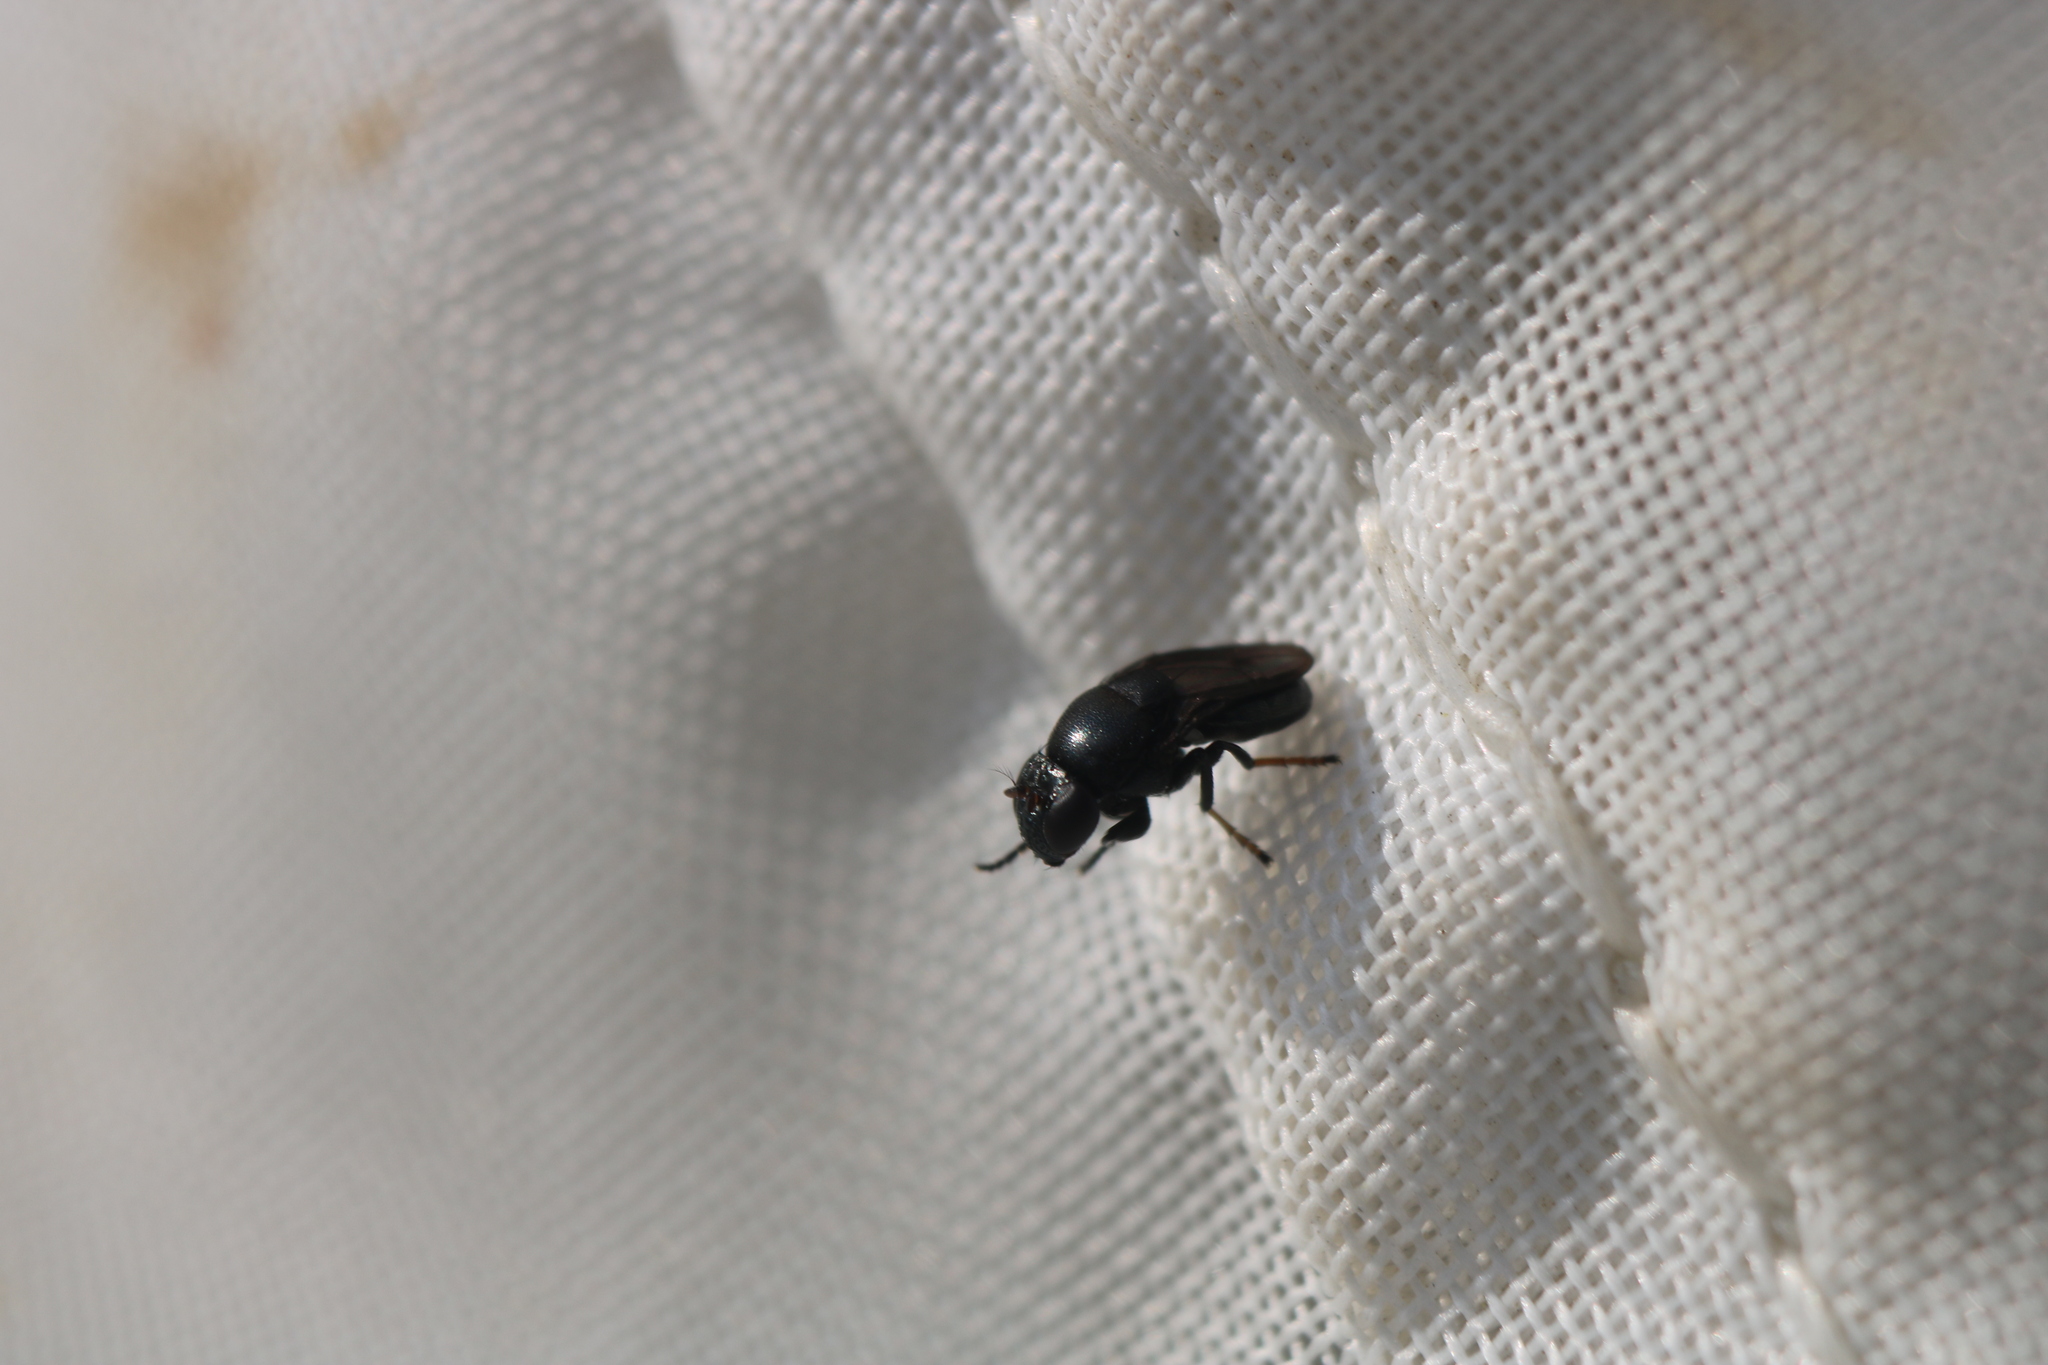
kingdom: Animalia
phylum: Arthropoda
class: Insecta
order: Diptera
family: Ephydridae
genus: Discomyza
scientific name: Discomyza incurva
